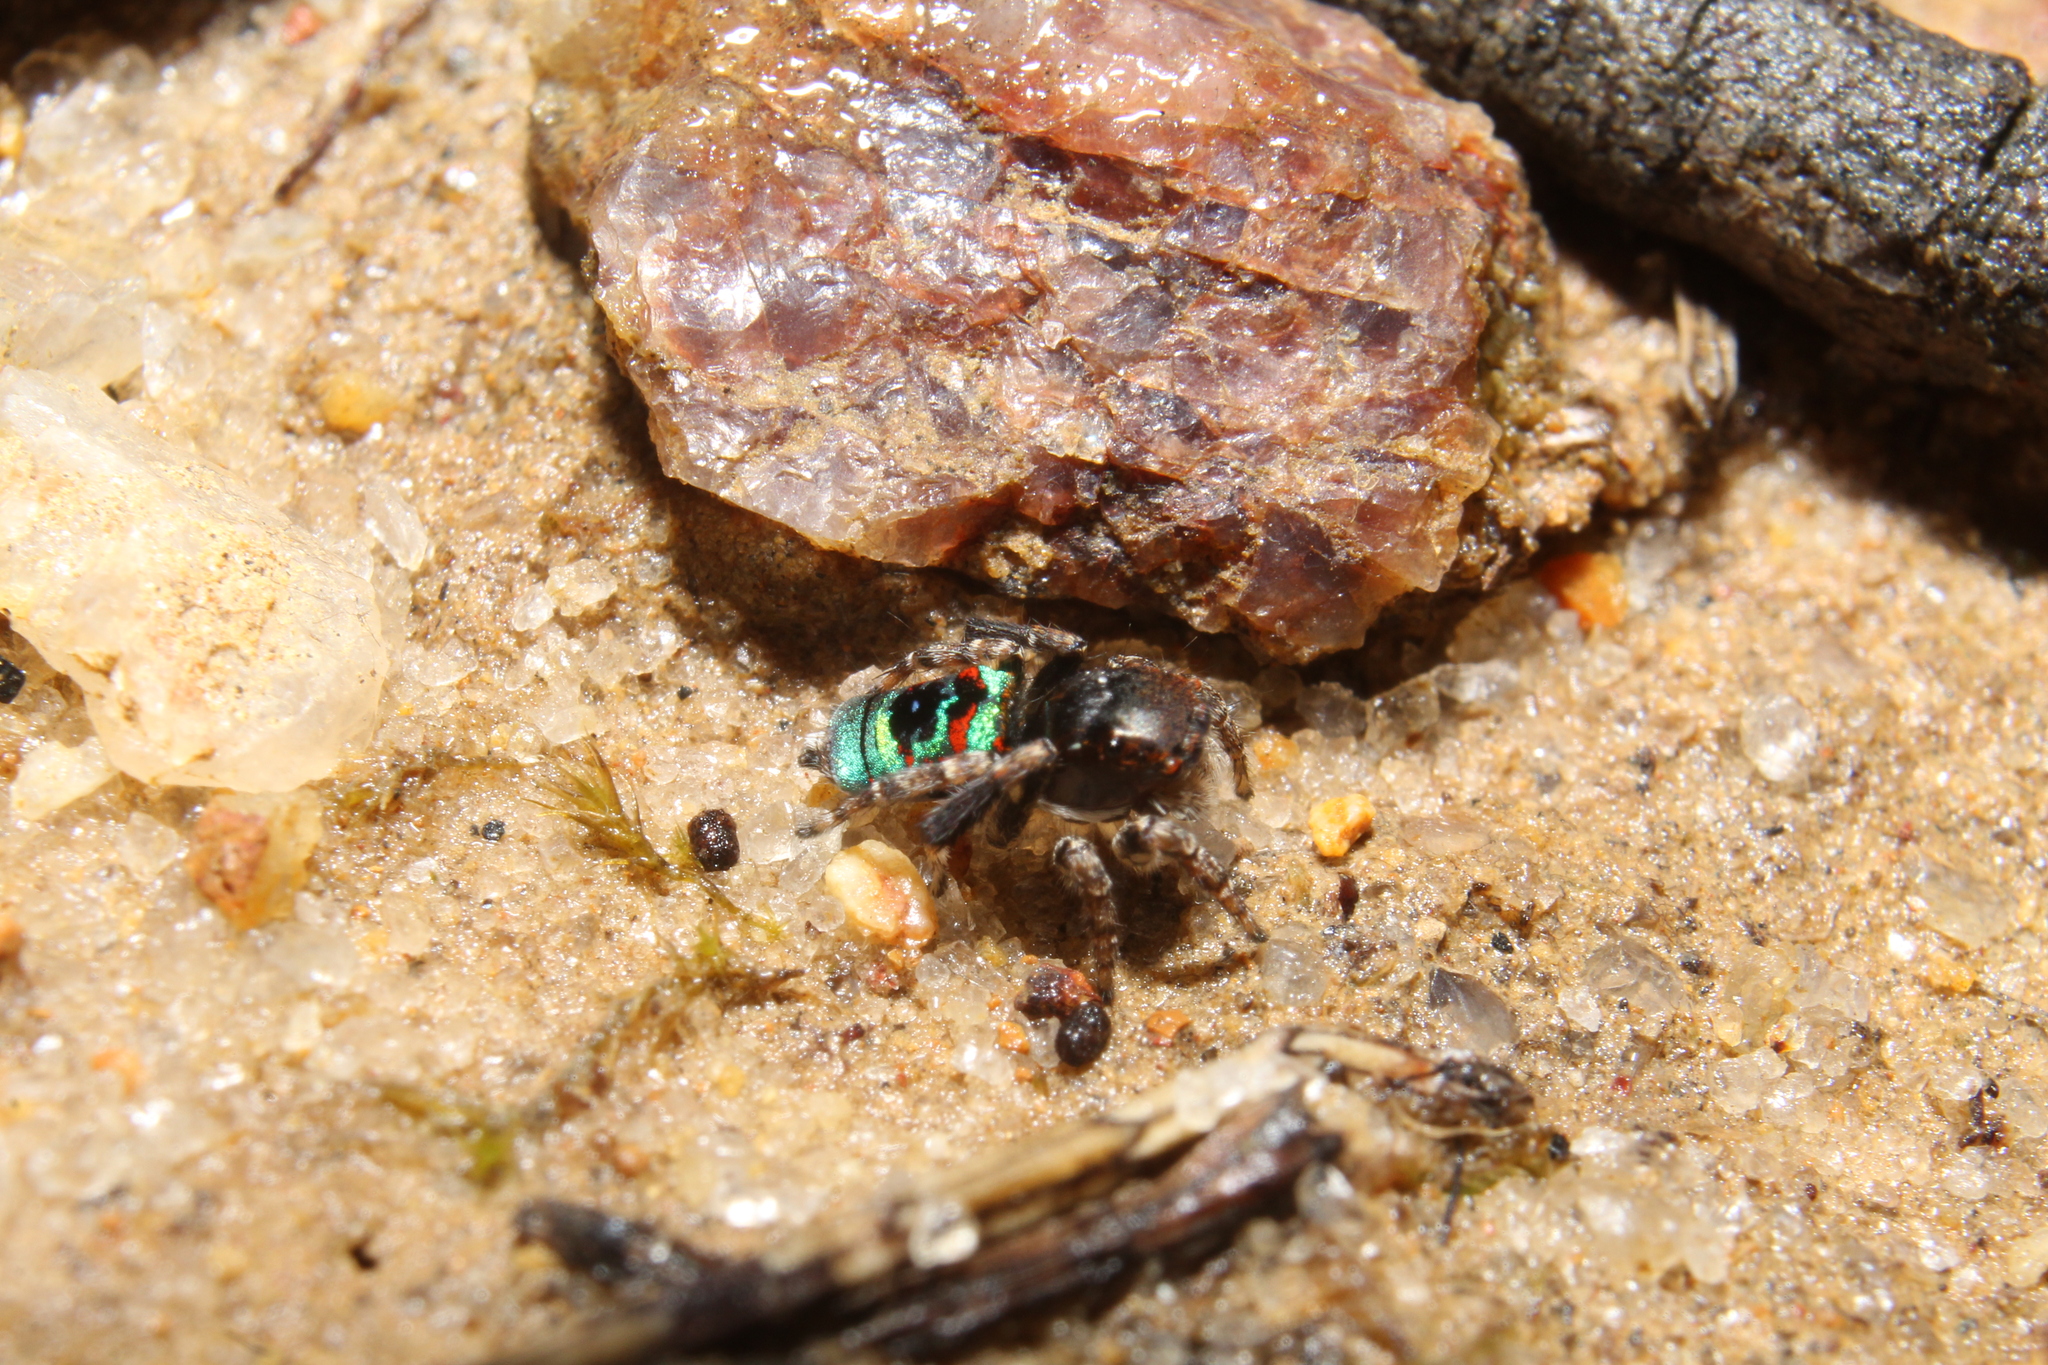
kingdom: Animalia
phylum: Arthropoda
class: Arachnida
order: Araneae
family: Salticidae
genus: Maratus
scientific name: Maratus karrie
